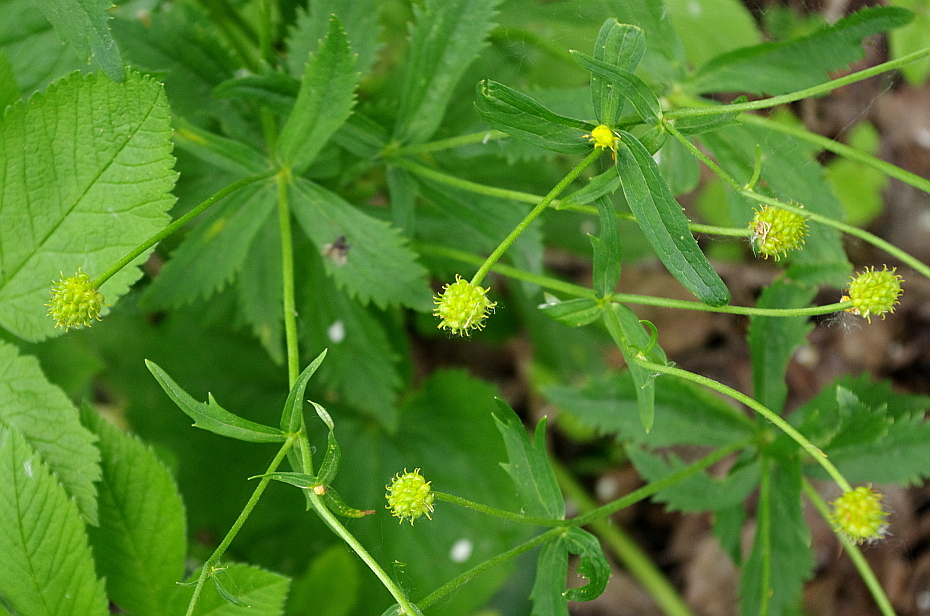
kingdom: Plantae
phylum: Tracheophyta
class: Magnoliopsida
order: Ranunculales
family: Ranunculaceae
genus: Ranunculus
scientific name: Ranunculus cassubicus
